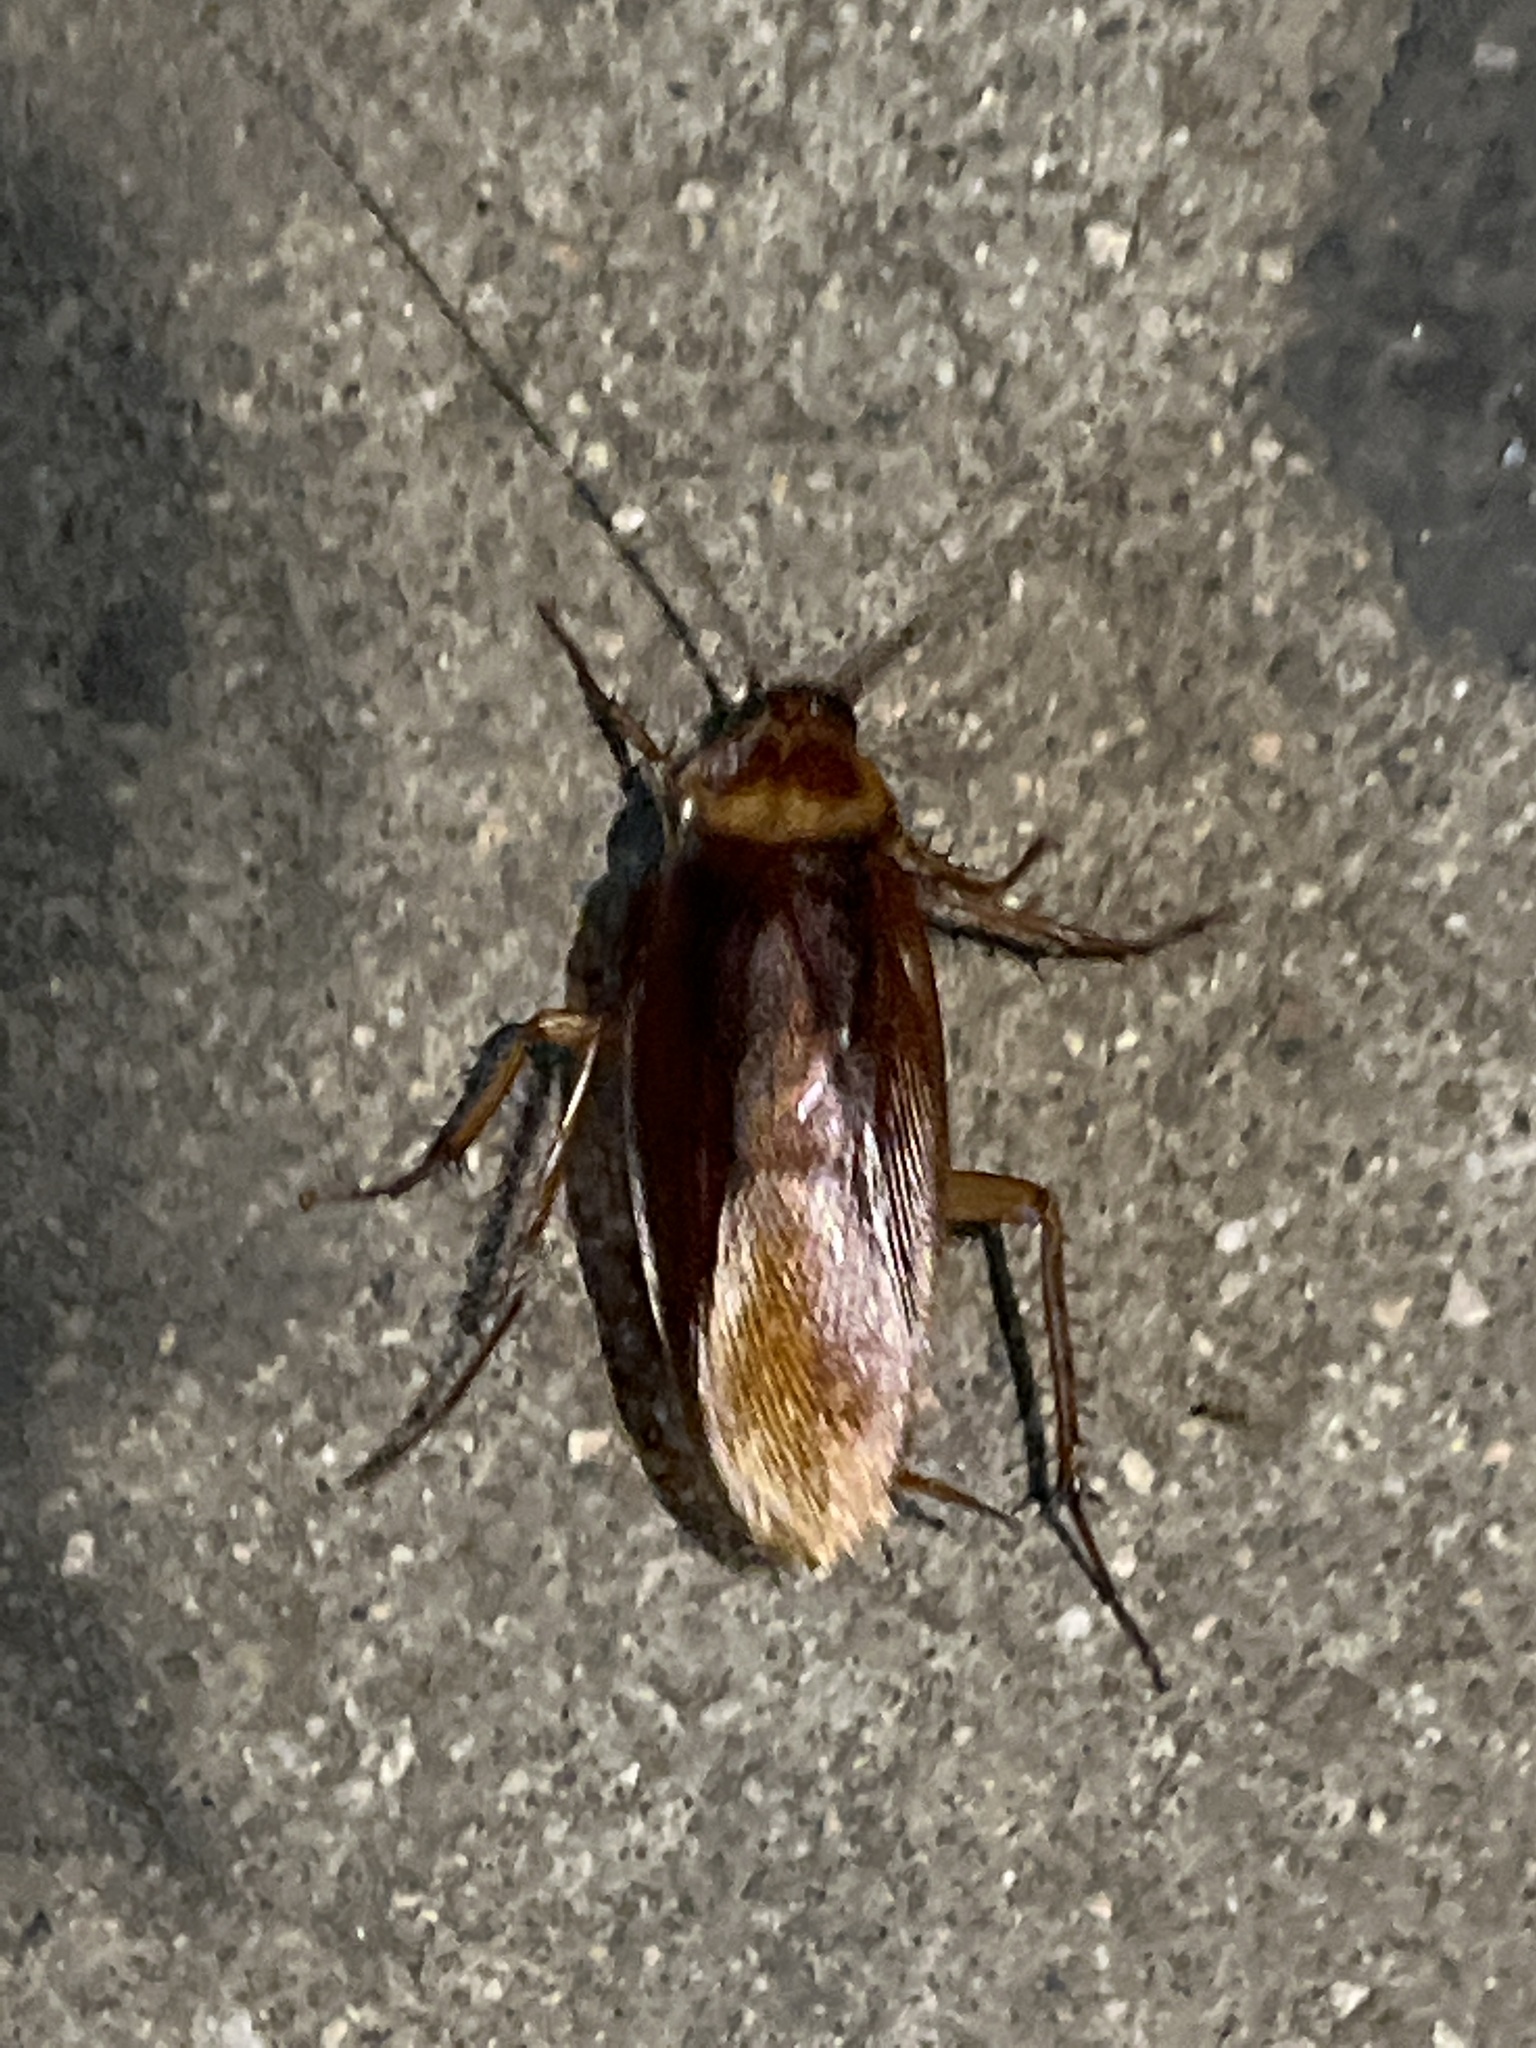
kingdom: Animalia
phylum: Arthropoda
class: Insecta
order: Blattodea
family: Blattidae
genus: Periplaneta
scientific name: Periplaneta americana
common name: American cockroach
